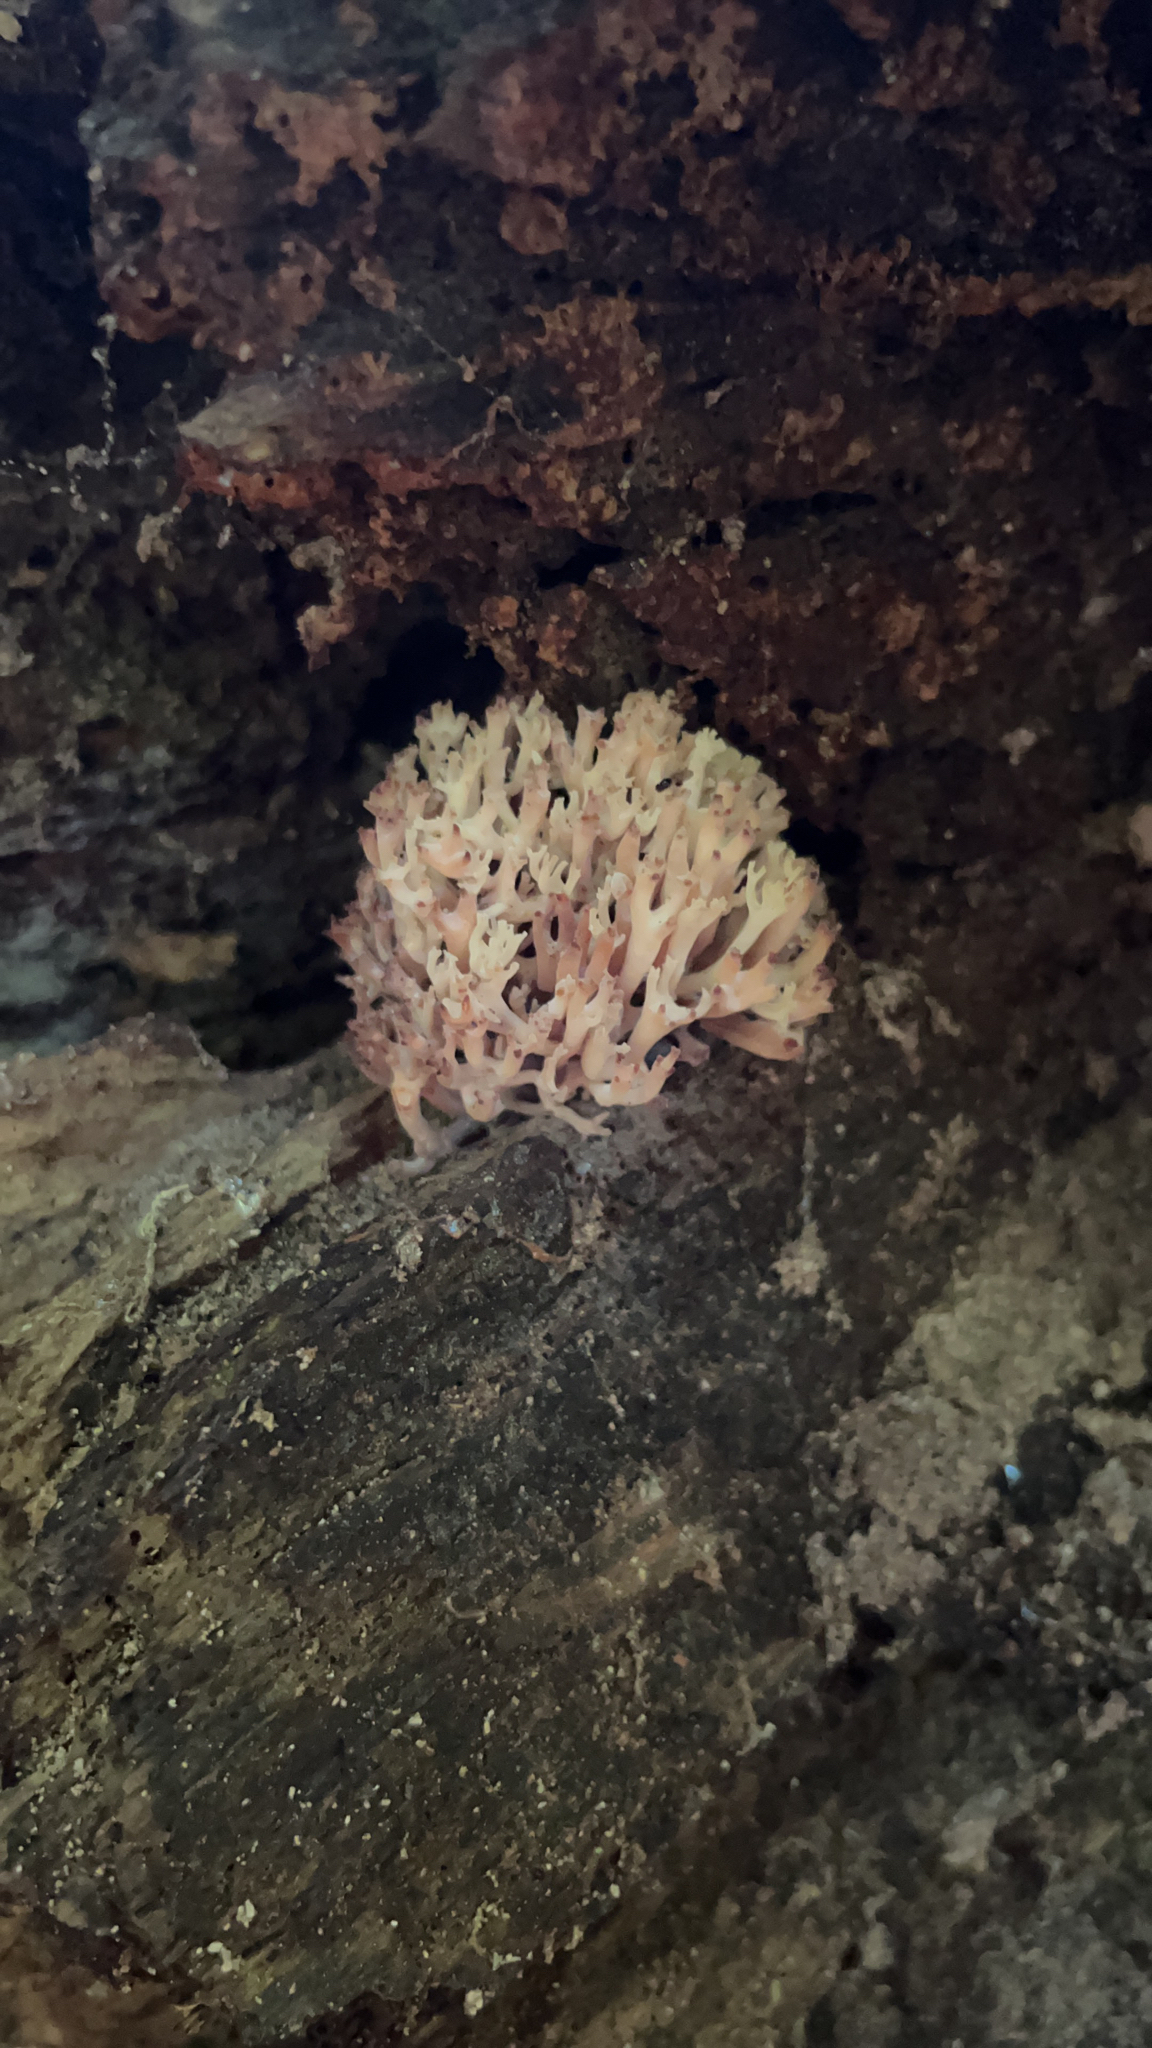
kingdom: Fungi
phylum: Basidiomycota
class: Agaricomycetes
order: Russulales
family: Auriscalpiaceae
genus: Artomyces
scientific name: Artomyces pyxidatus
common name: Crown-tipped coral fungus
